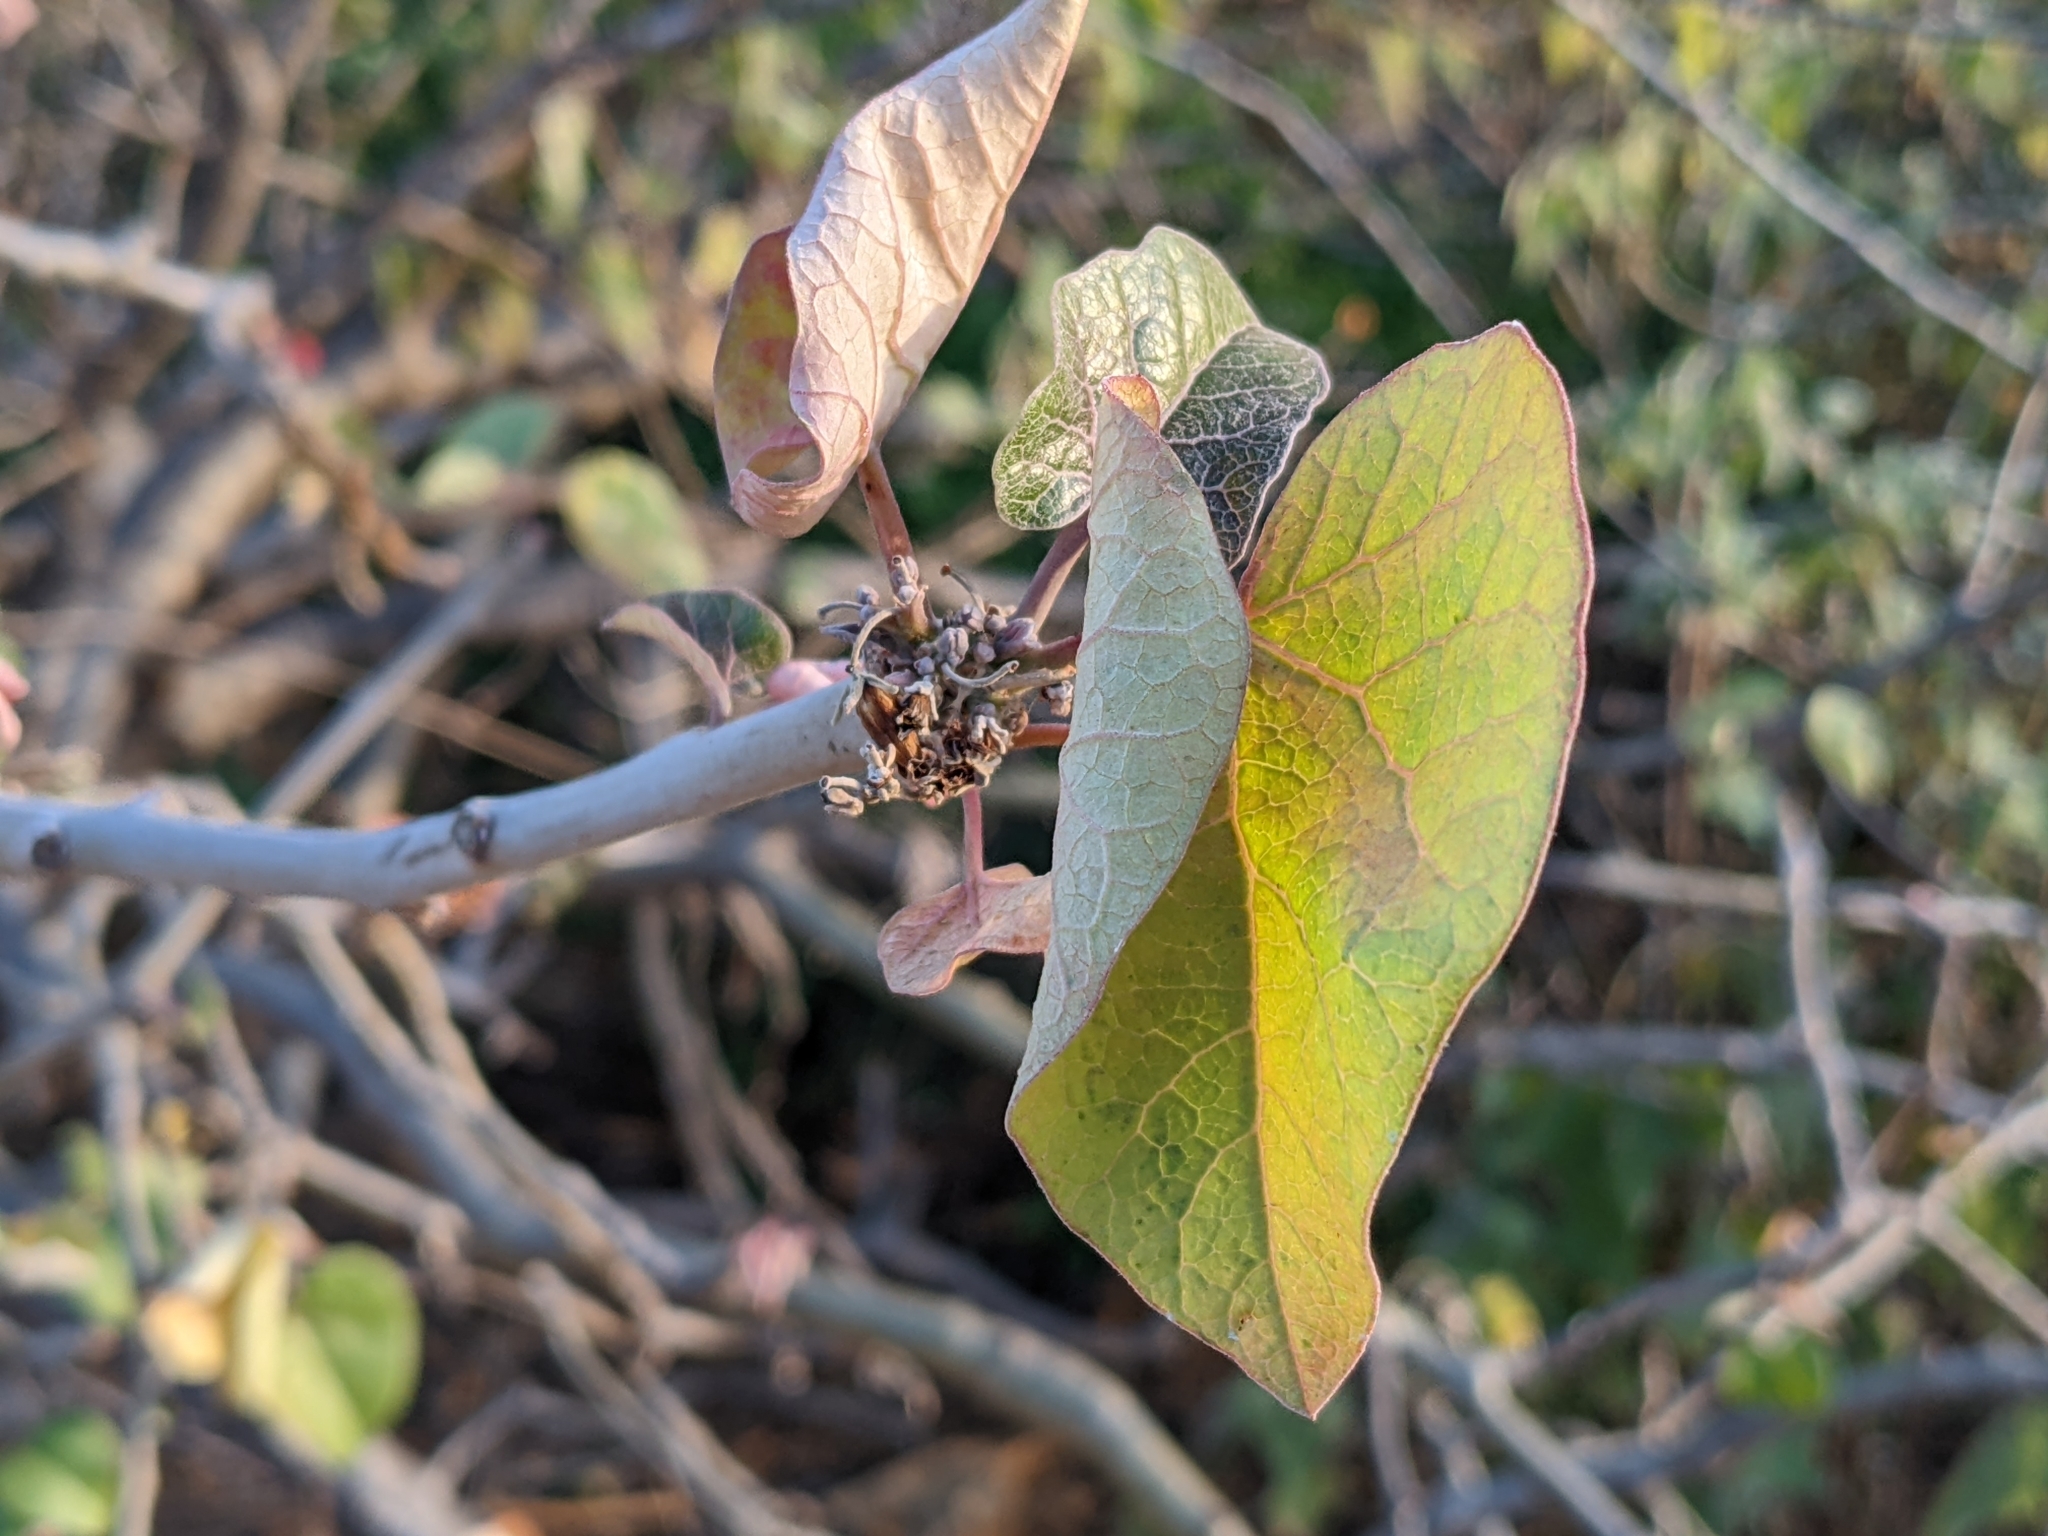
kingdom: Plantae
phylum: Tracheophyta
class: Magnoliopsida
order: Malpighiales
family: Euphorbiaceae
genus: Jatropha
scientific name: Jatropha cinerea
